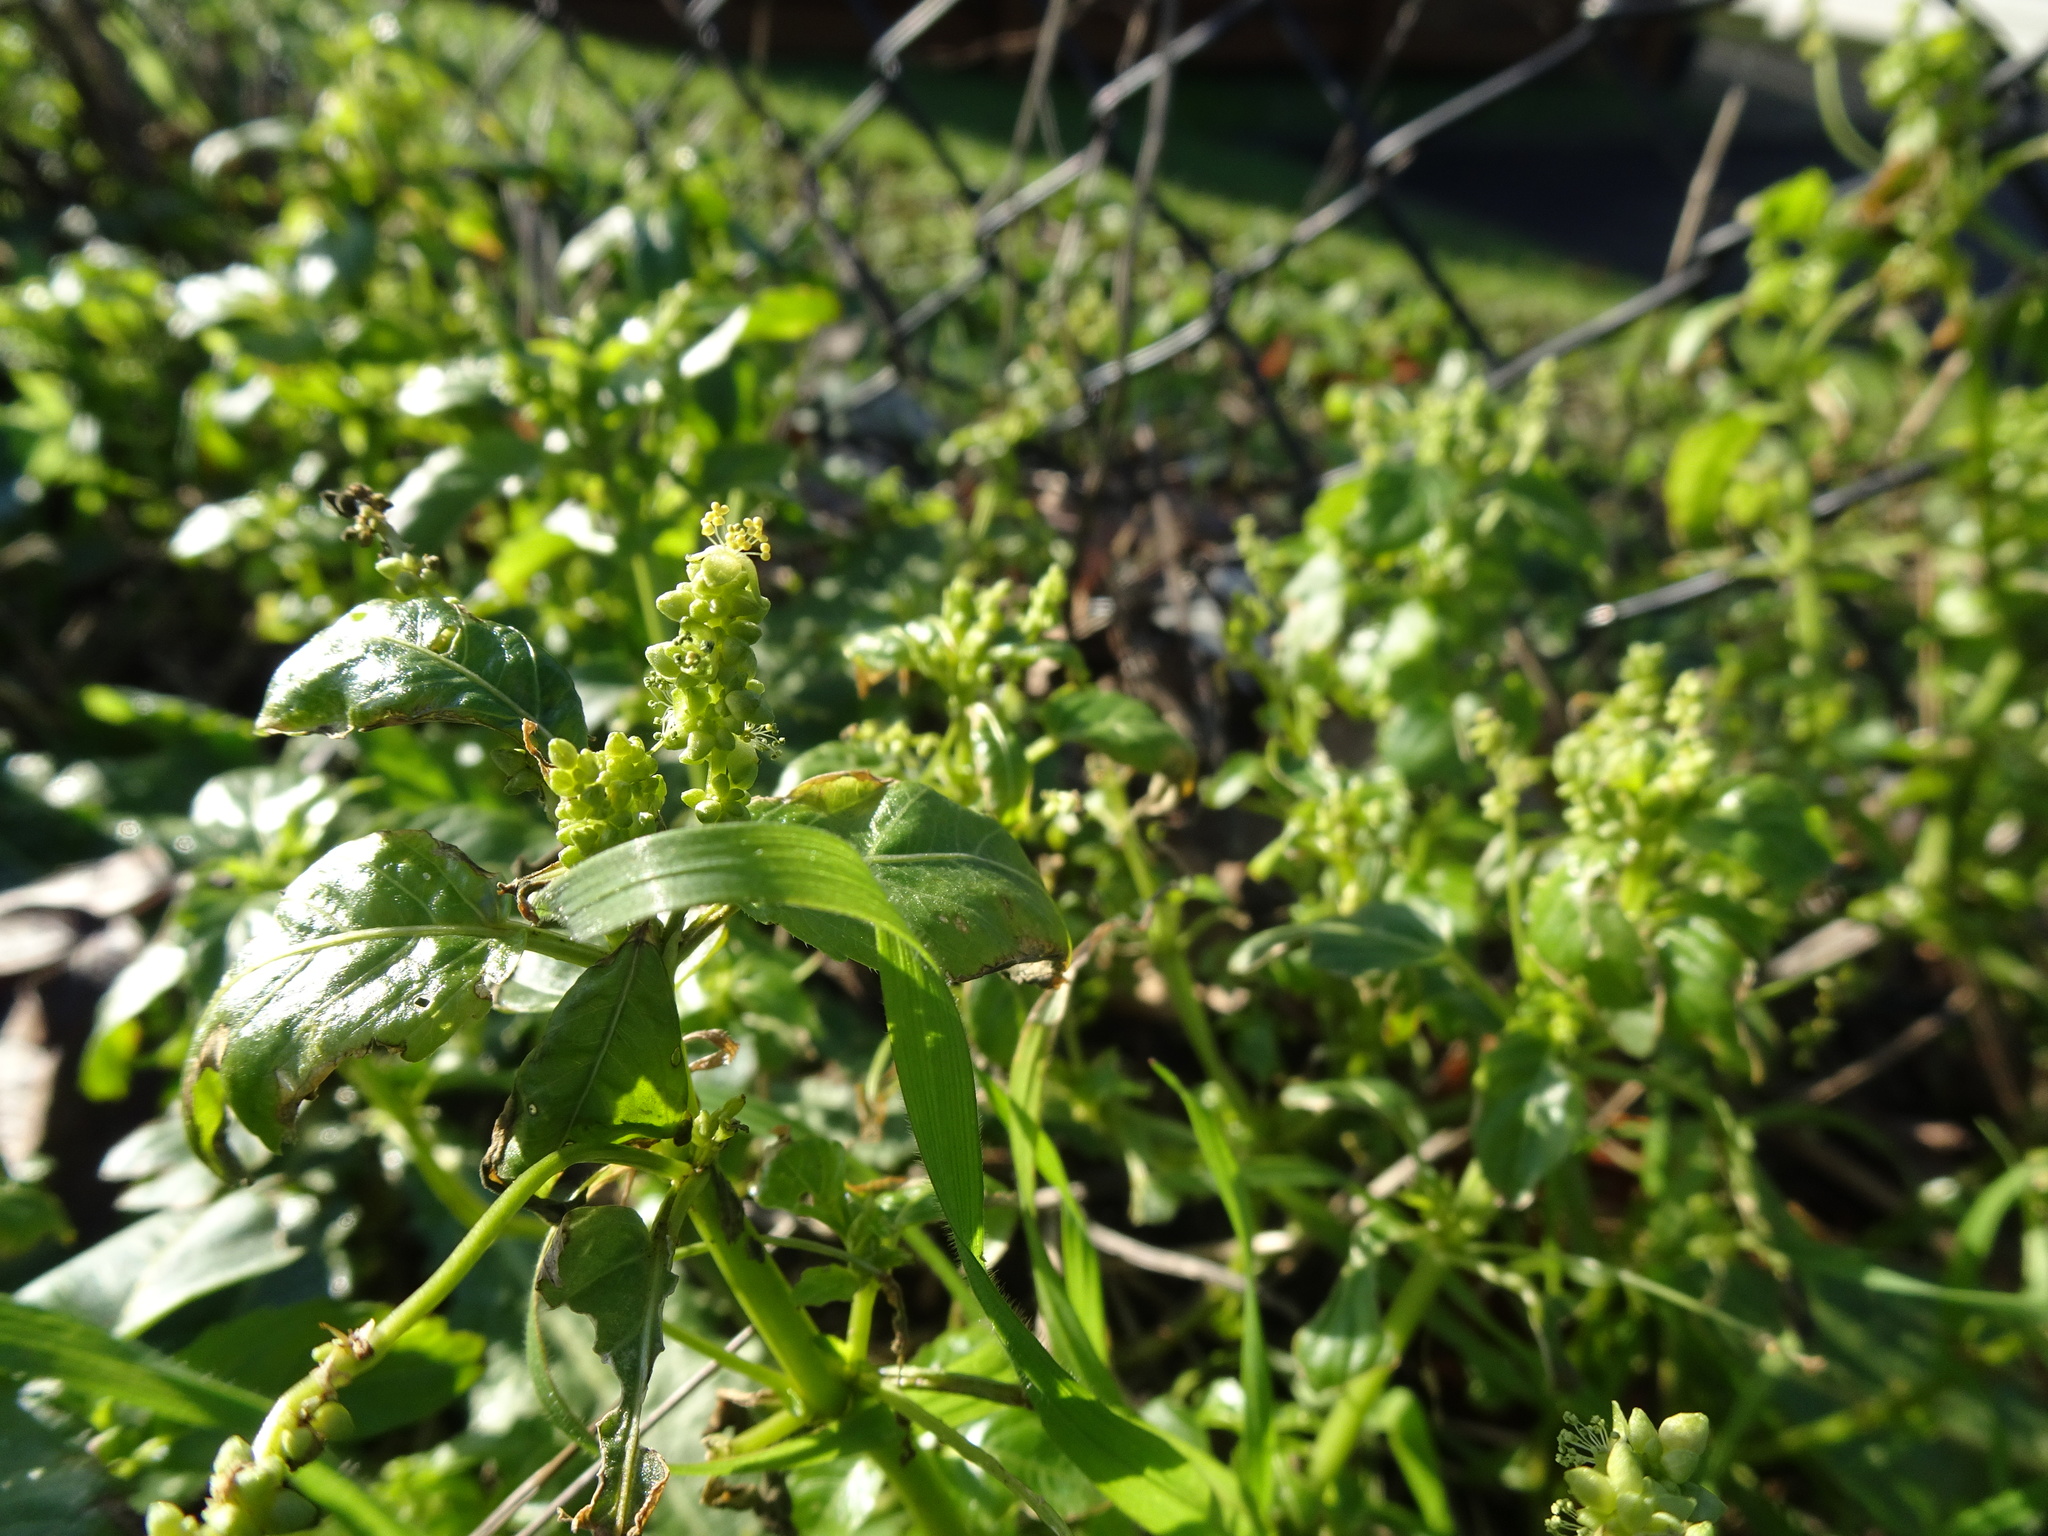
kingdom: Plantae
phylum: Tracheophyta
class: Magnoliopsida
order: Malpighiales
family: Euphorbiaceae
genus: Mercurialis
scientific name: Mercurialis annua
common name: Annual mercury
